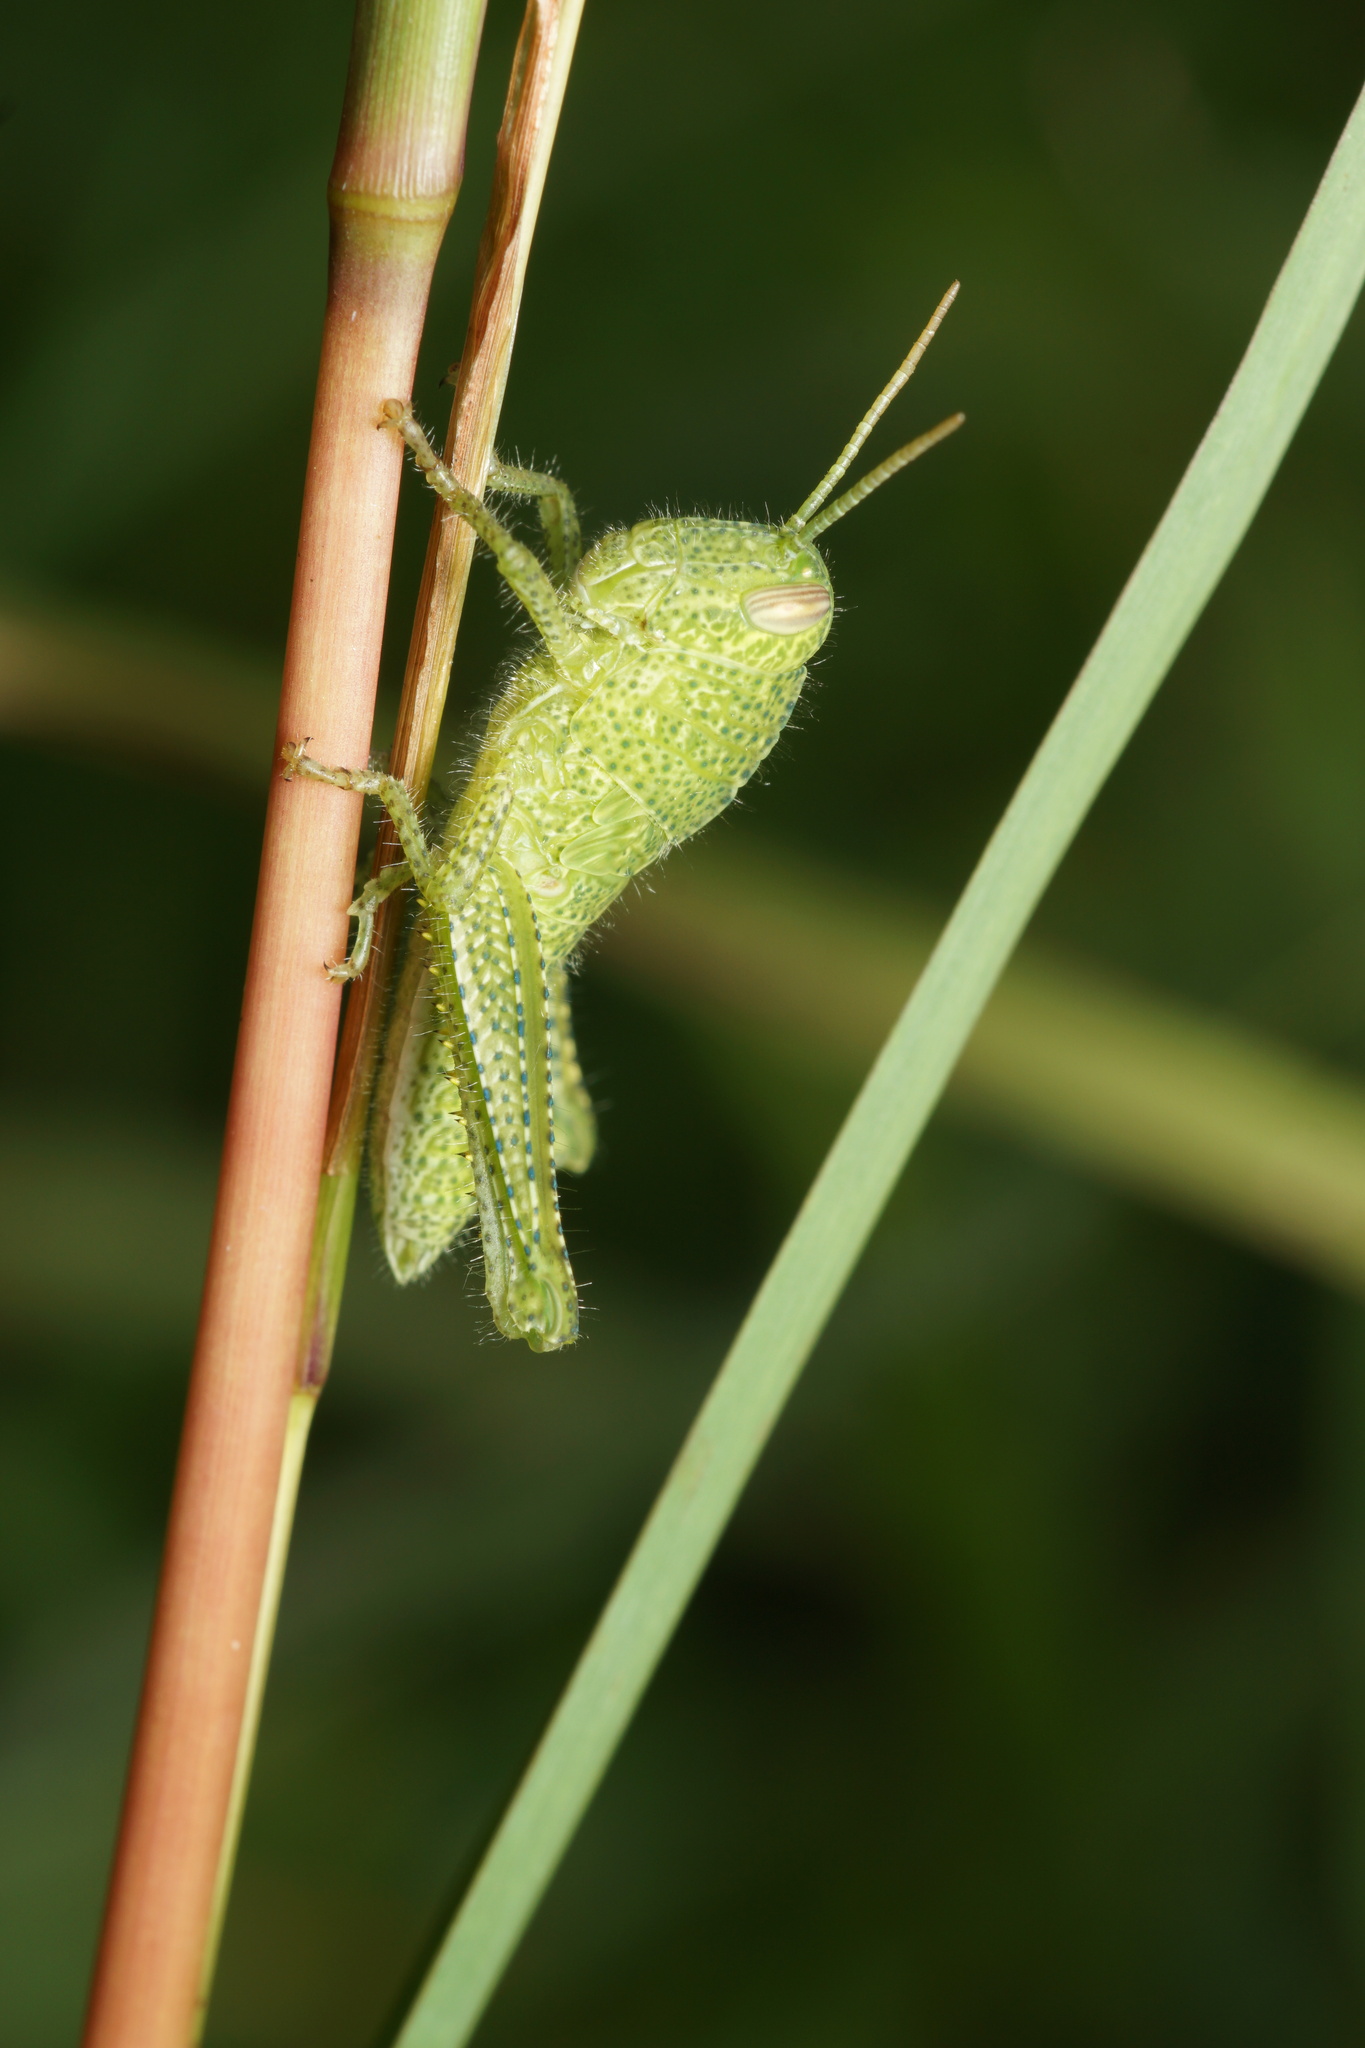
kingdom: Animalia
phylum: Arthropoda
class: Insecta
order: Orthoptera
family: Acrididae
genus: Schistocerca
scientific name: Schistocerca flavofasciata
